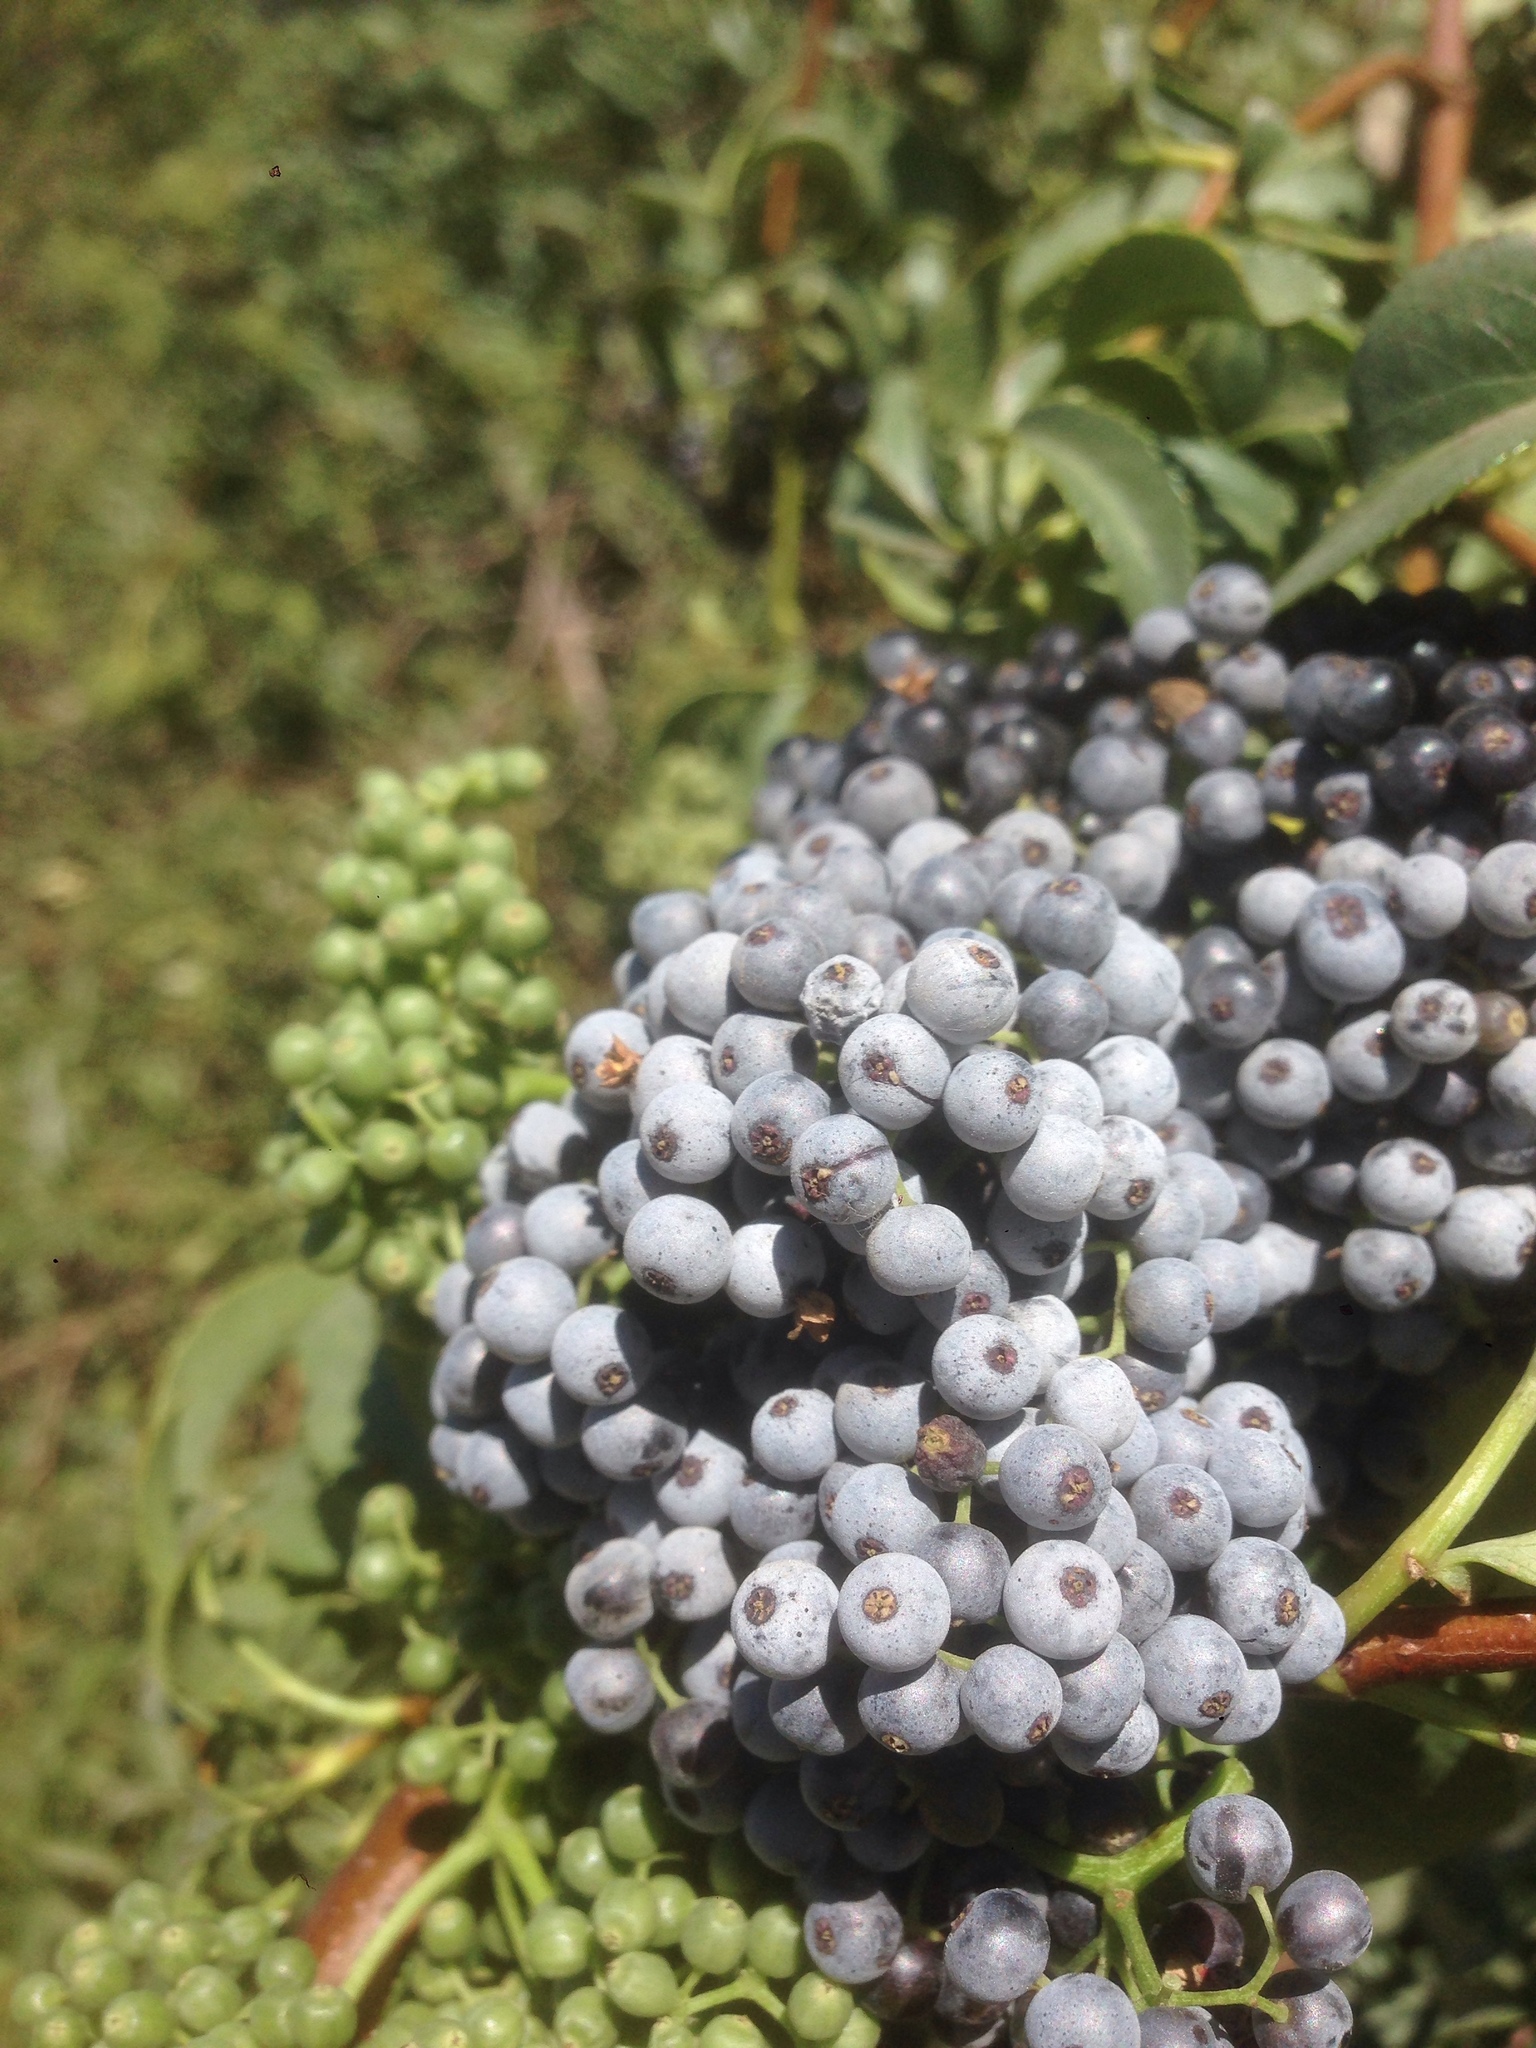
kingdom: Plantae
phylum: Tracheophyta
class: Magnoliopsida
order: Dipsacales
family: Viburnaceae
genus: Sambucus
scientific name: Sambucus cerulea
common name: Blue elder
